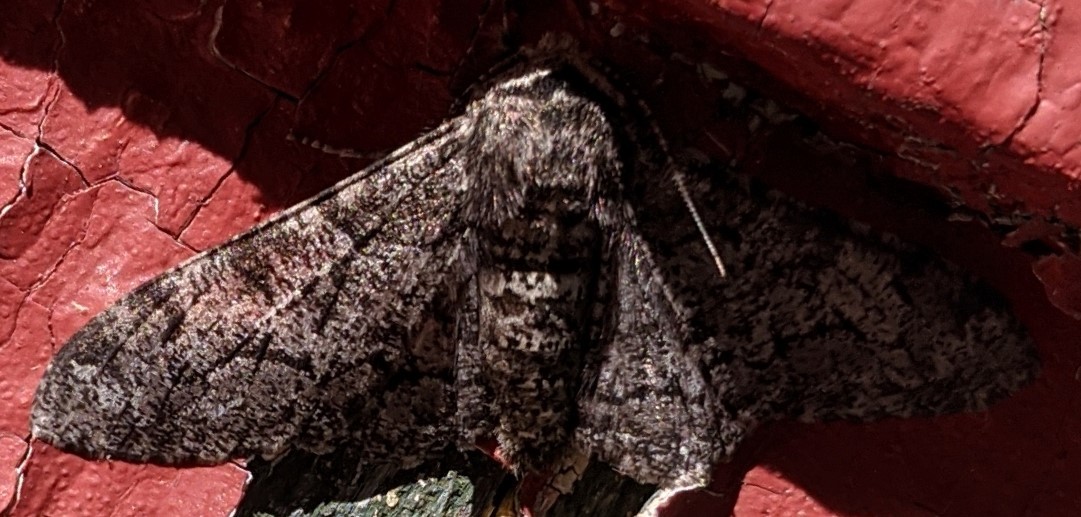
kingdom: Animalia
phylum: Arthropoda
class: Insecta
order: Lepidoptera
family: Geometridae
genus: Biston
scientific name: Biston betularia
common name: Peppered moth
